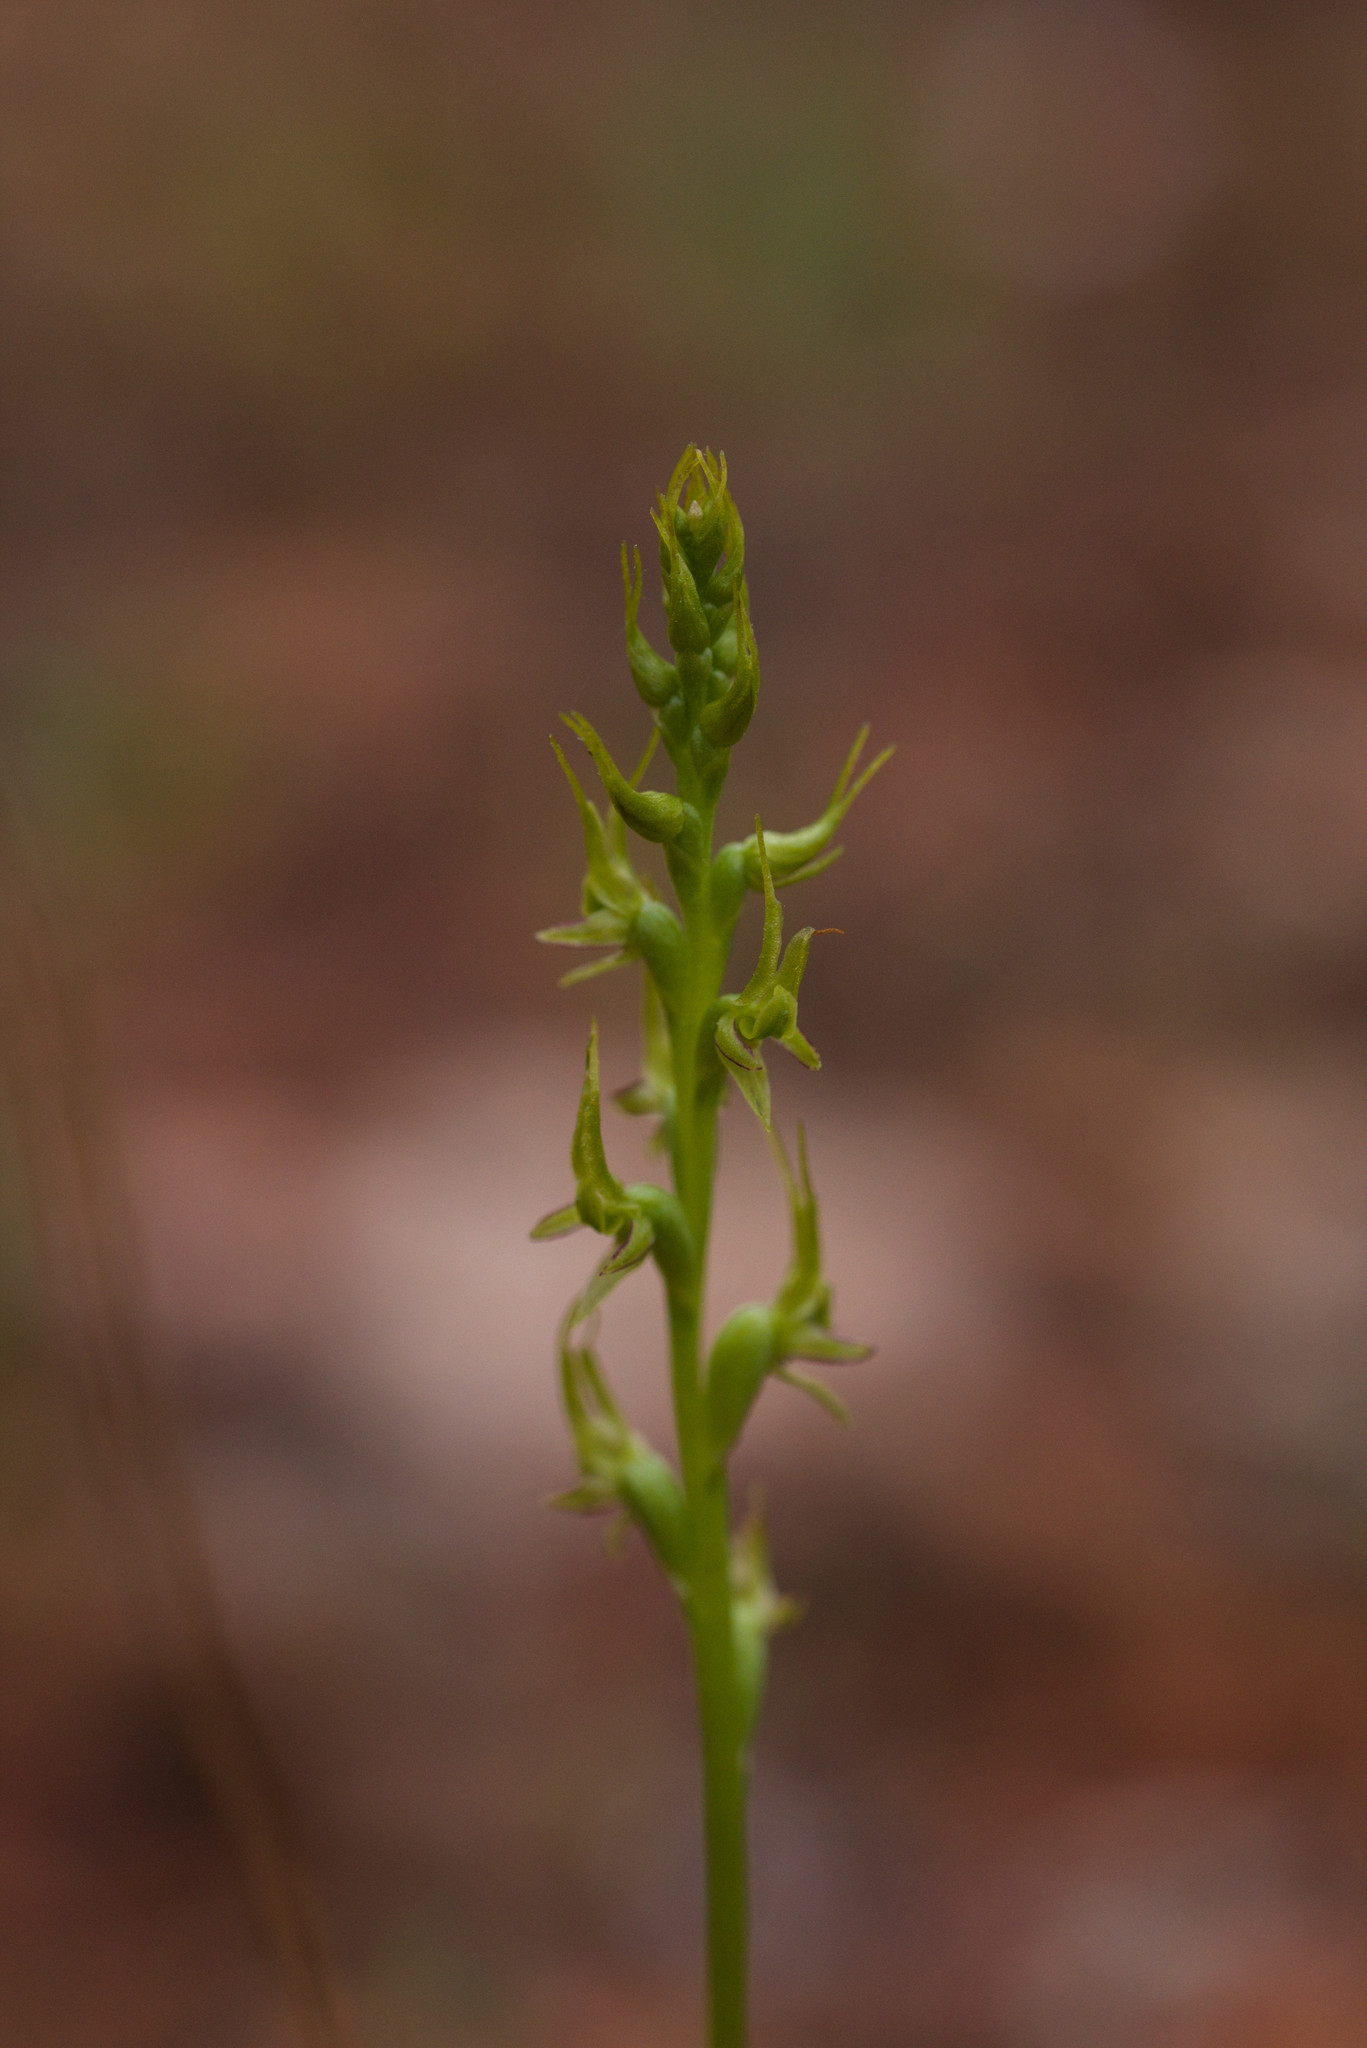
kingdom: Plantae
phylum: Tracheophyta
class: Liliopsida
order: Asparagales
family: Orchidaceae
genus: Prasophyllum
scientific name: Prasophyllum gracile
